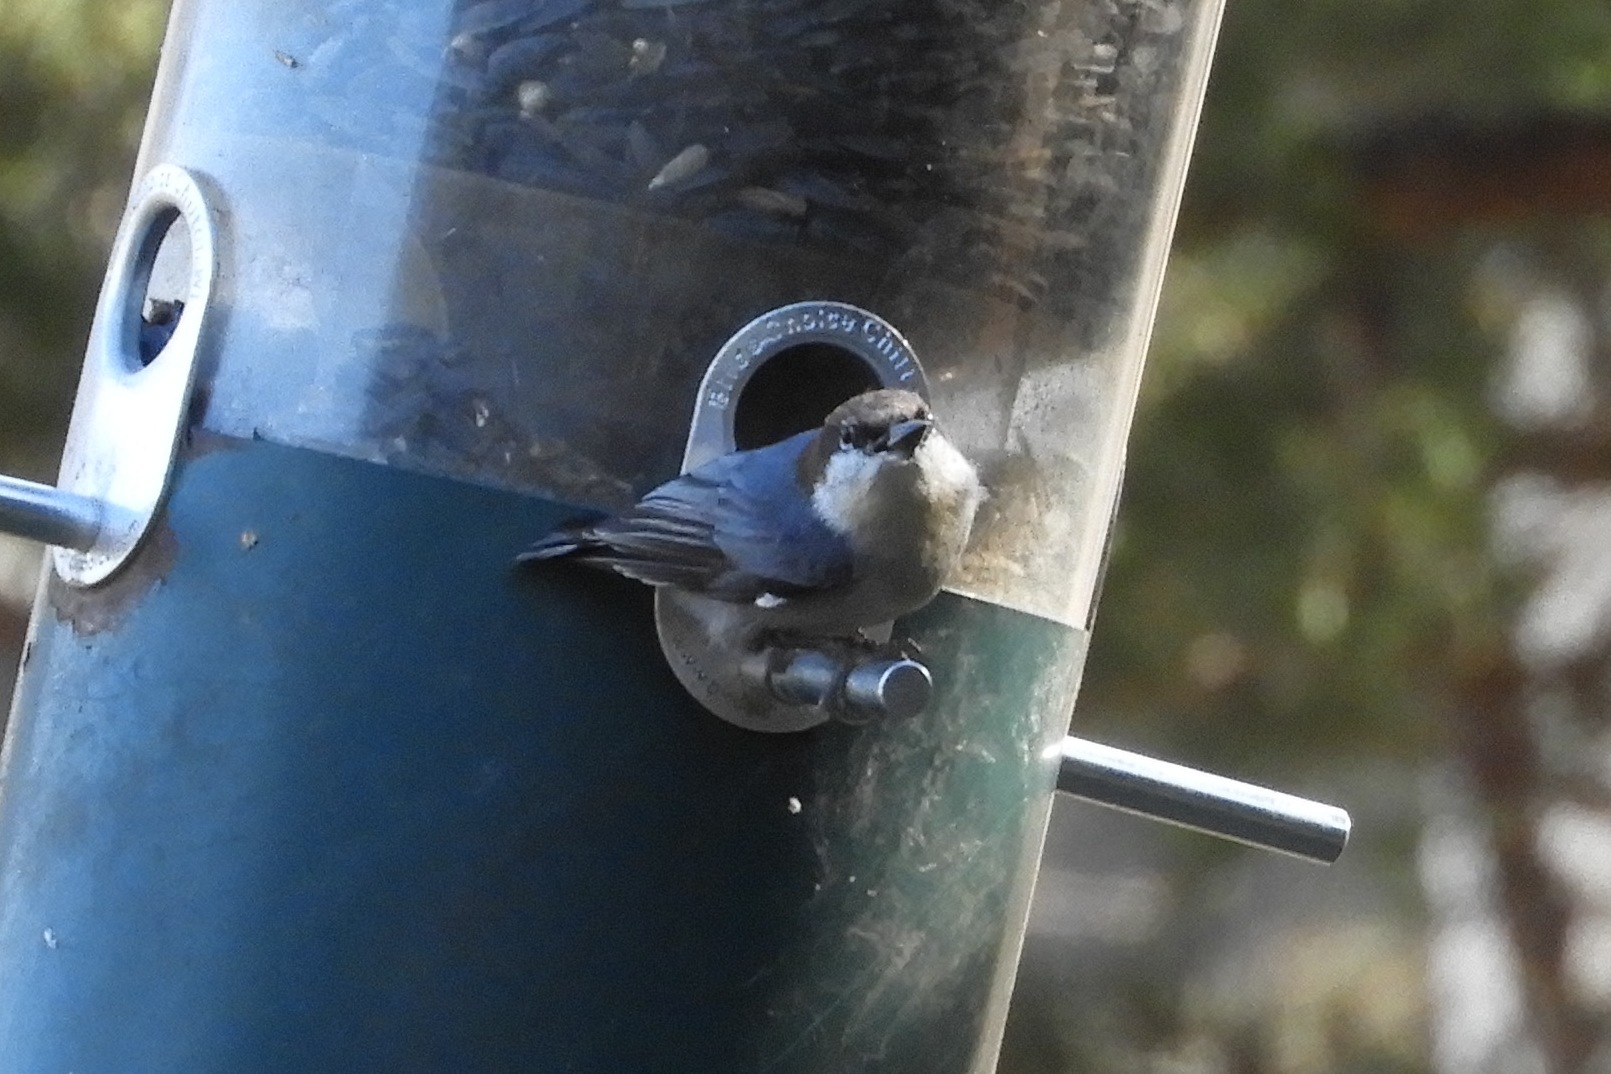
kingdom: Animalia
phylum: Chordata
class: Aves
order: Passeriformes
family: Sittidae
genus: Sitta
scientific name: Sitta pusilla
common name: Brown-headed nuthatch
